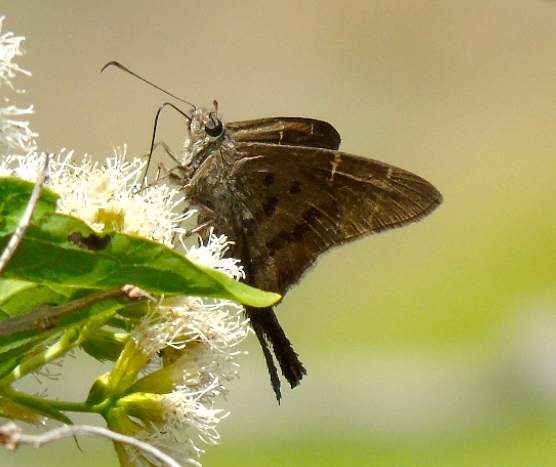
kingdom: Animalia
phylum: Arthropoda
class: Insecta
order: Lepidoptera
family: Hesperiidae
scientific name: Hesperiidae
